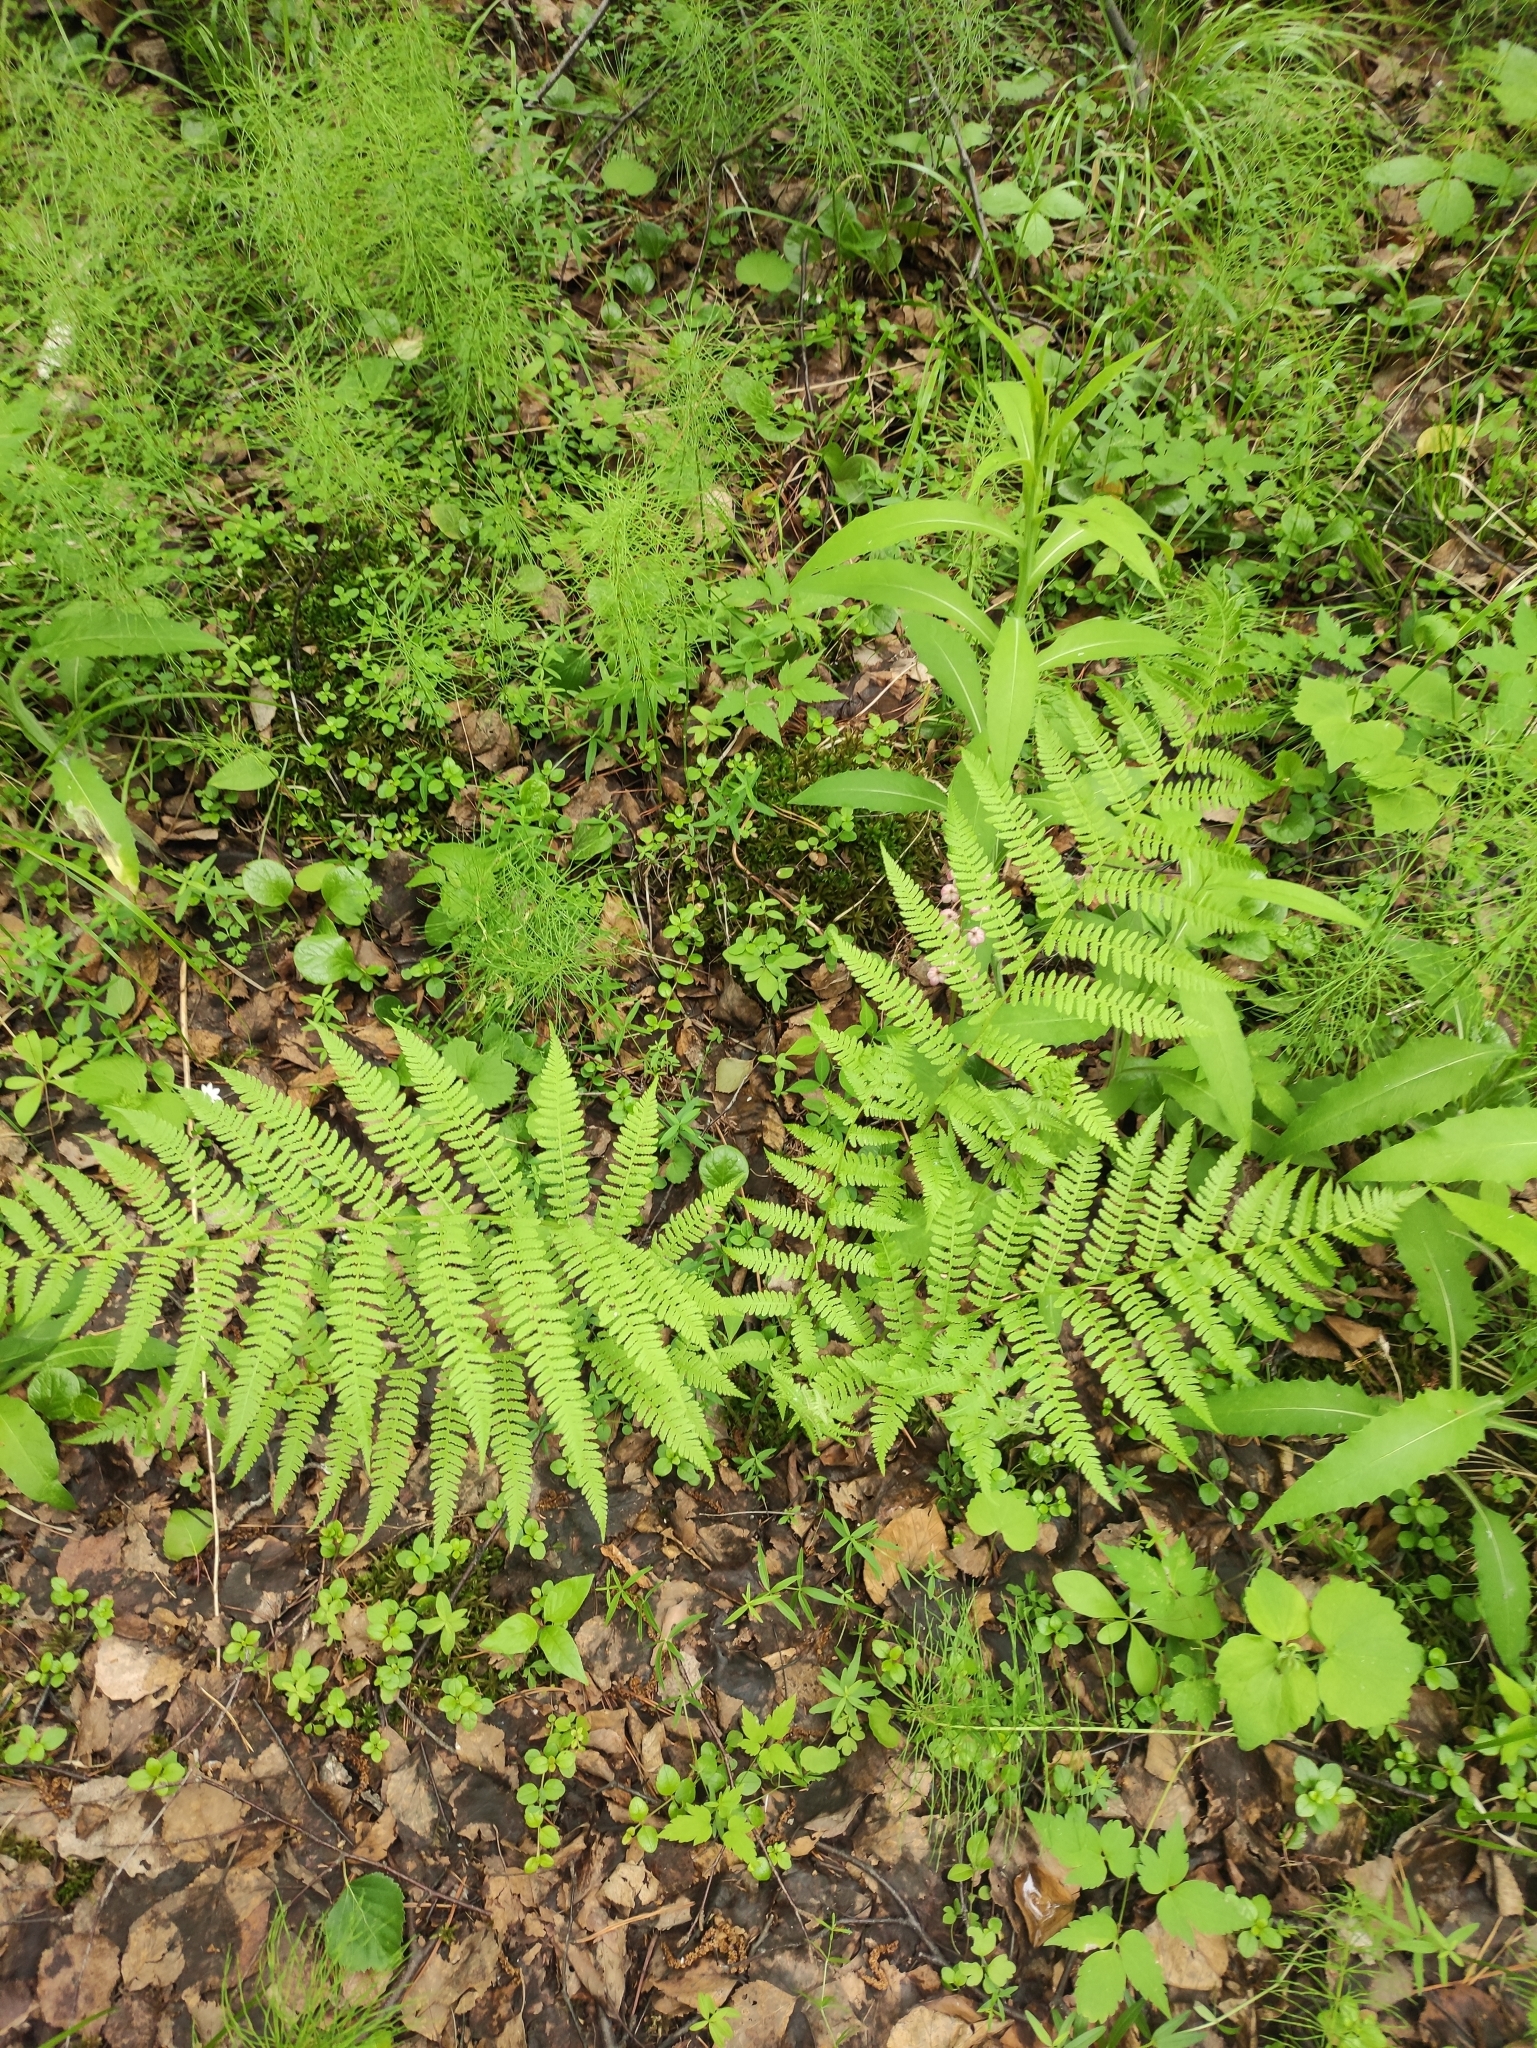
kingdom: Plantae
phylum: Tracheophyta
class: Polypodiopsida
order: Polypodiales
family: Athyriaceae
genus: Athyrium
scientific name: Athyrium filix-femina
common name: Lady fern
